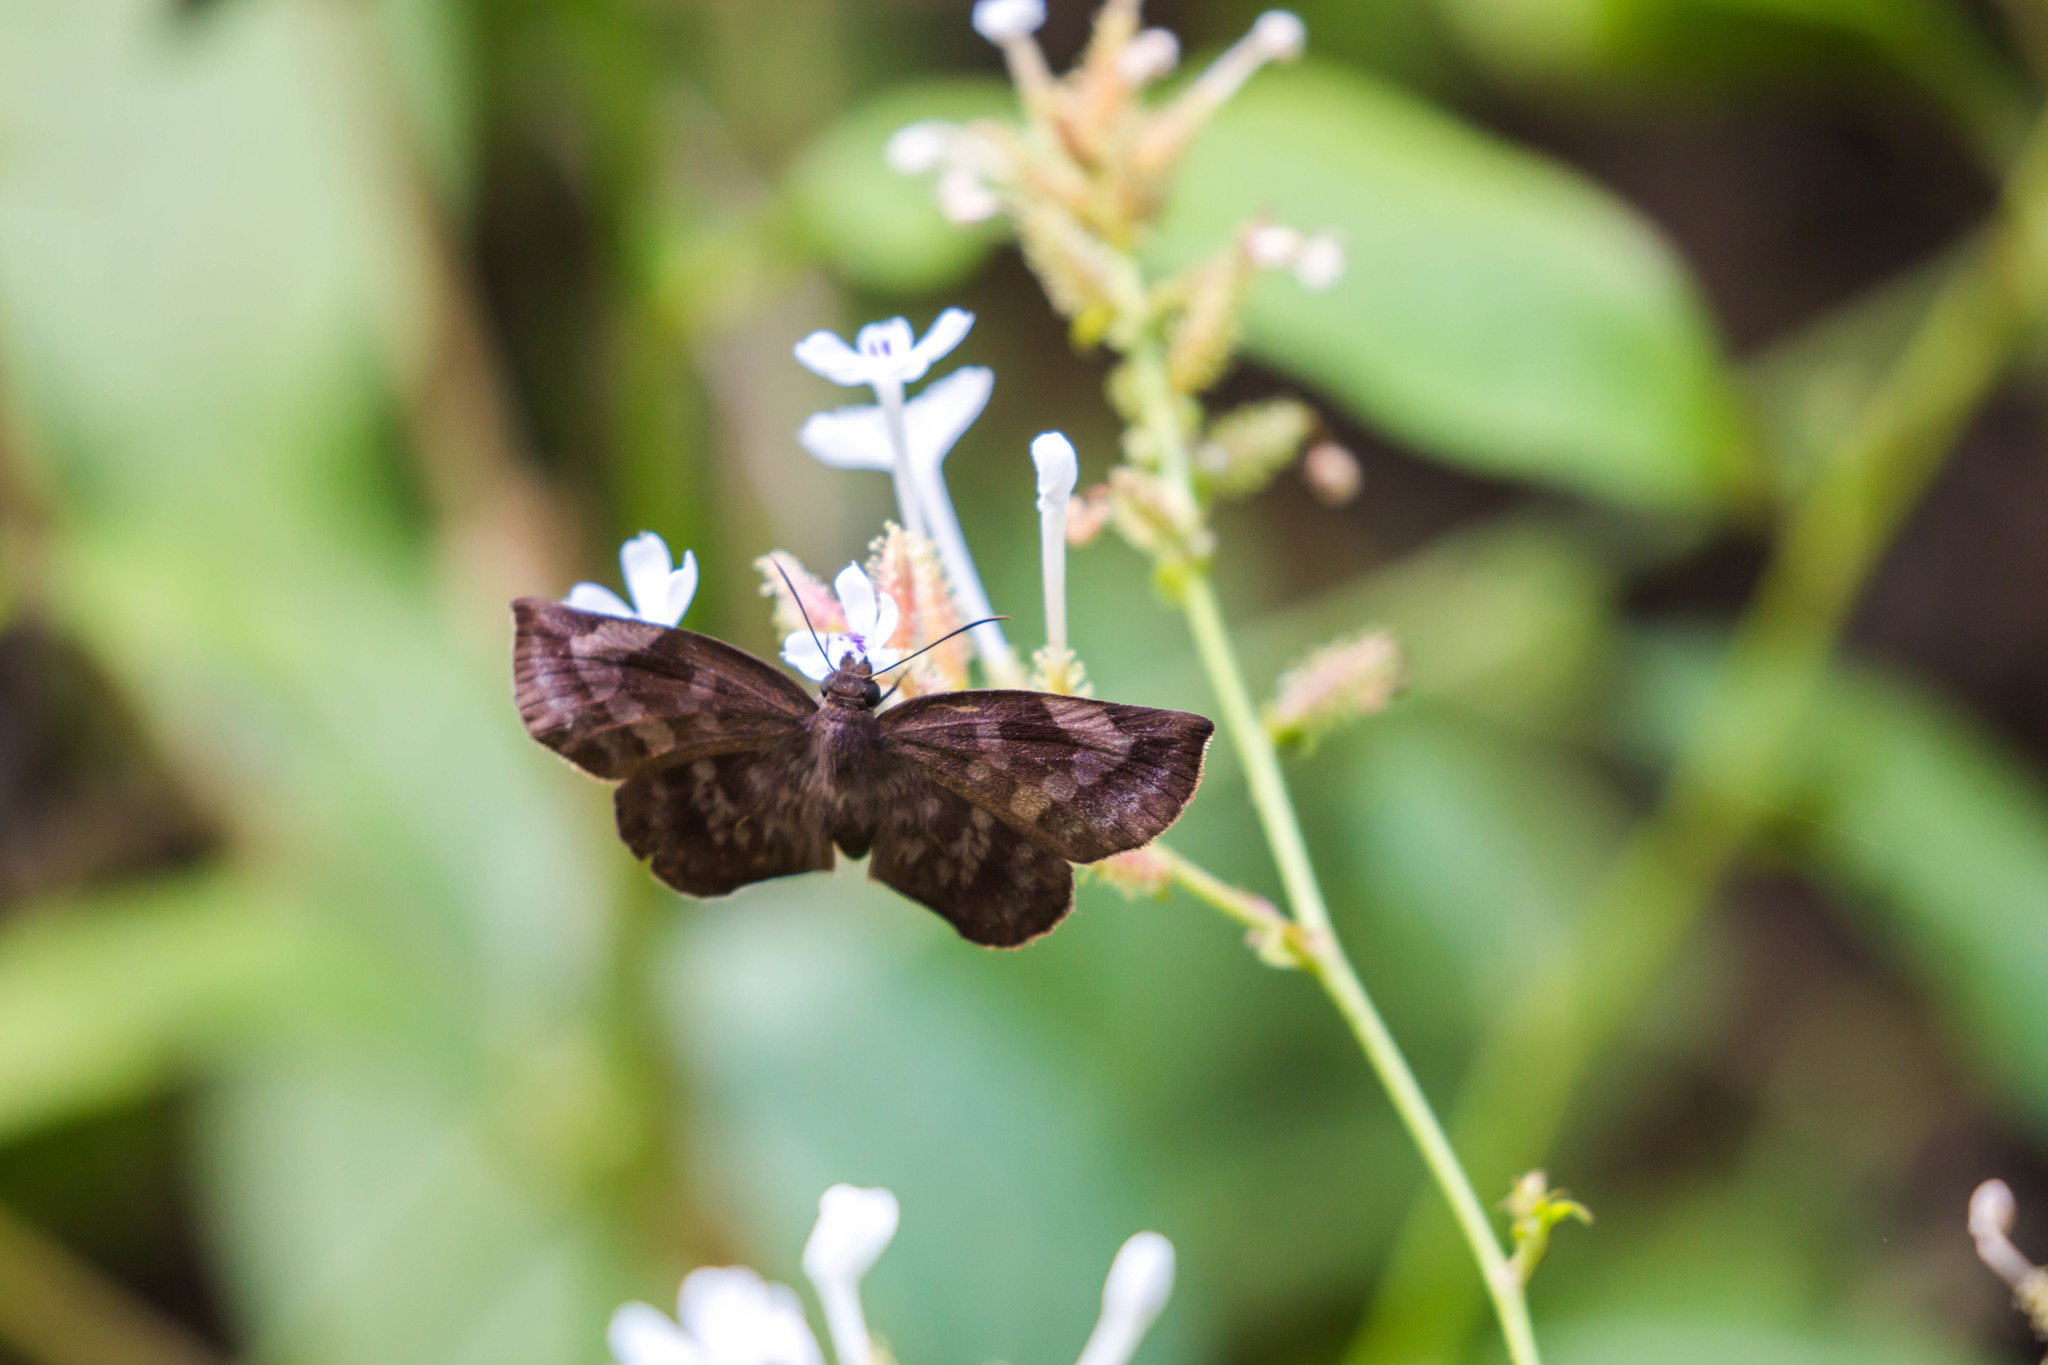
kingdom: Animalia
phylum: Arthropoda
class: Insecta
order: Lepidoptera
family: Hesperiidae
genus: Achlyodes
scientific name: Achlyodes thraso
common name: Sickle-winged skipper
